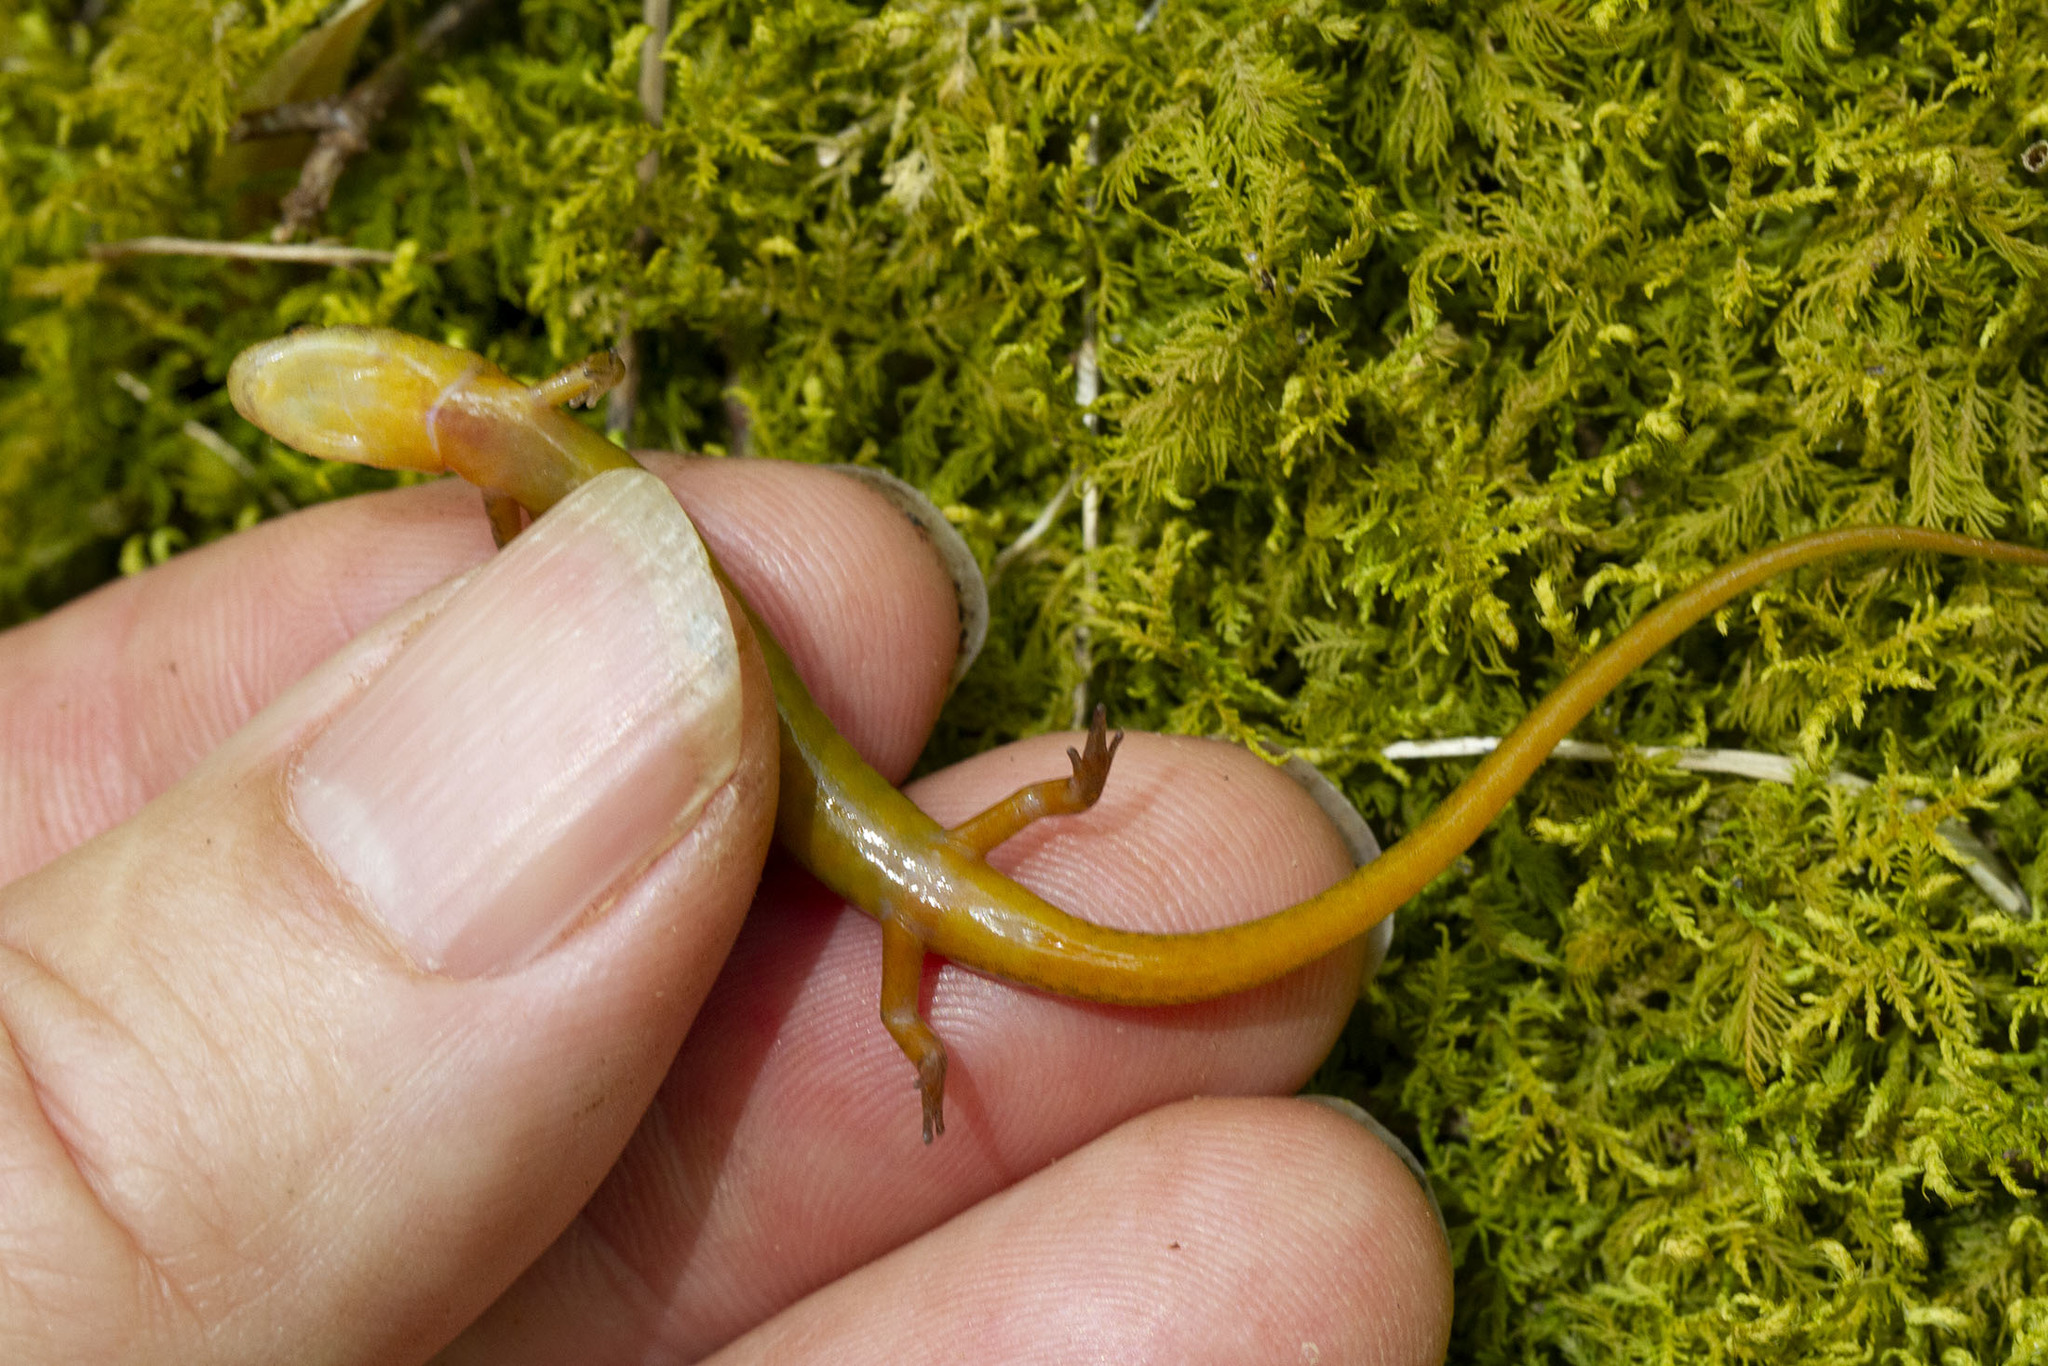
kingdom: Animalia
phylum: Chordata
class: Amphibia
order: Caudata
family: Plethodontidae
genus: Eurycea
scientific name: Eurycea bislineata
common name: Northern two-lined salamander
